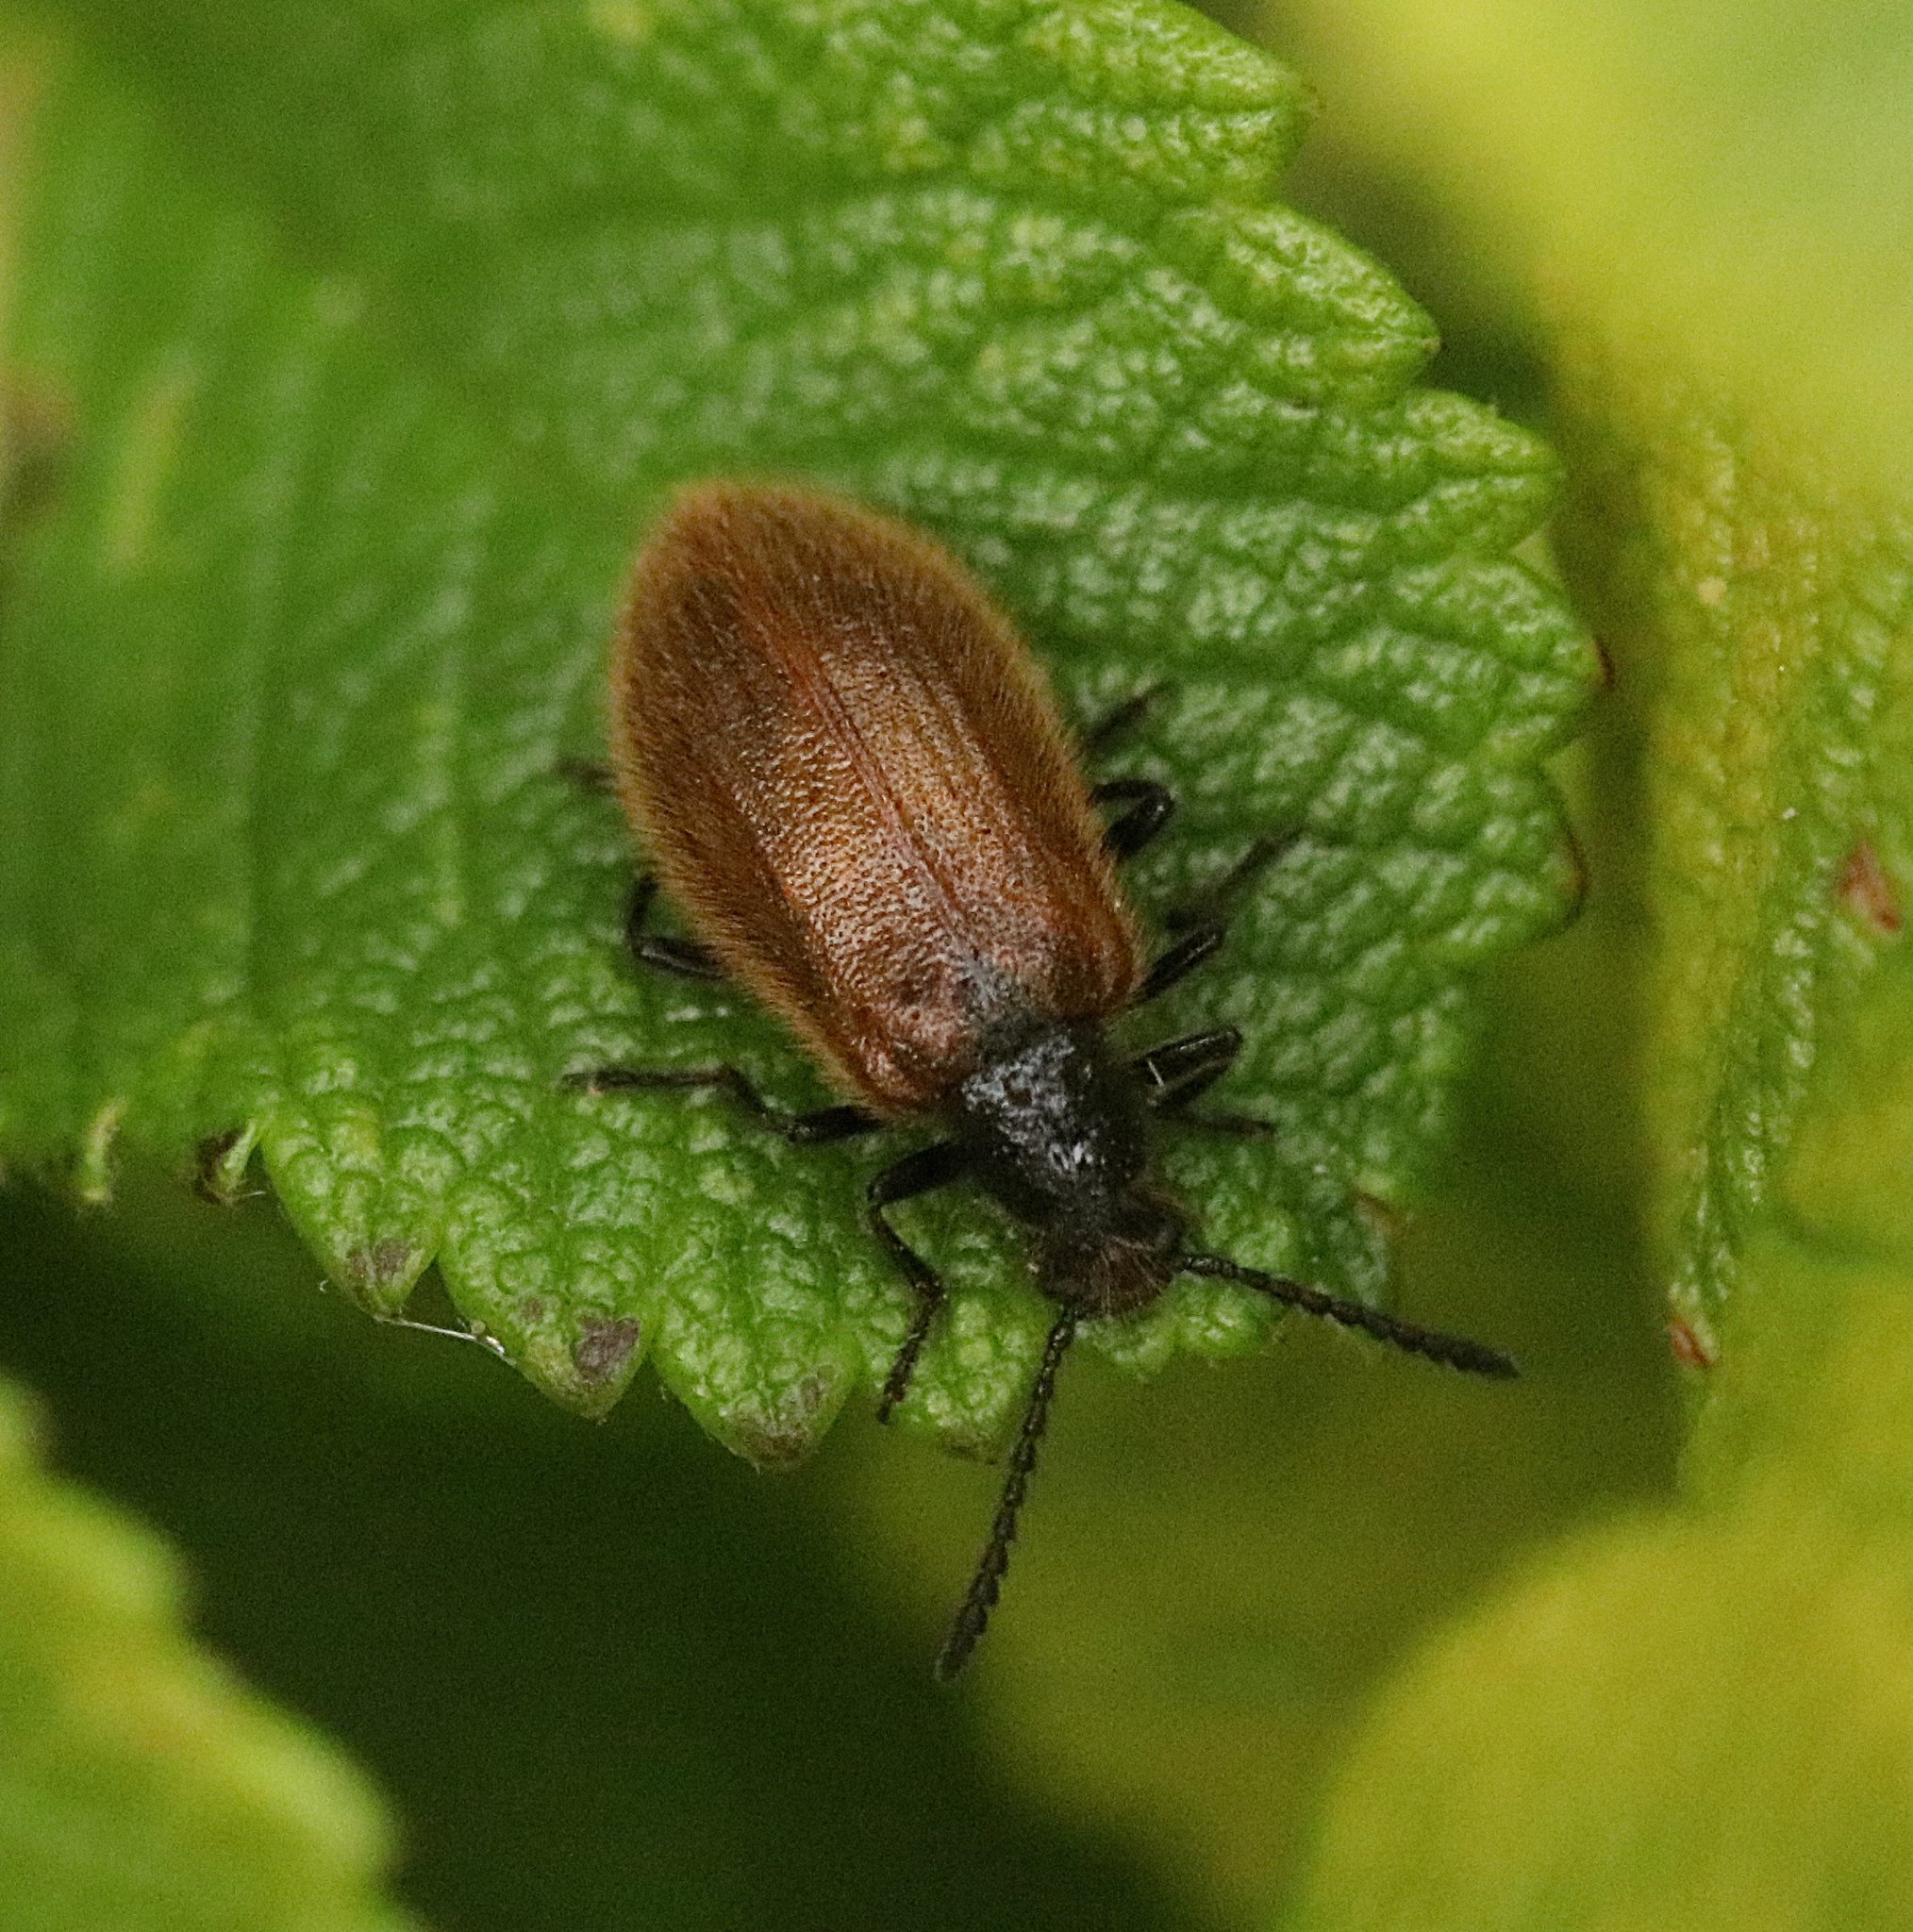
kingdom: Animalia
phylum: Arthropoda
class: Insecta
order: Coleoptera
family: Tenebrionidae
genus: Lagria
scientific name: Lagria hirta
